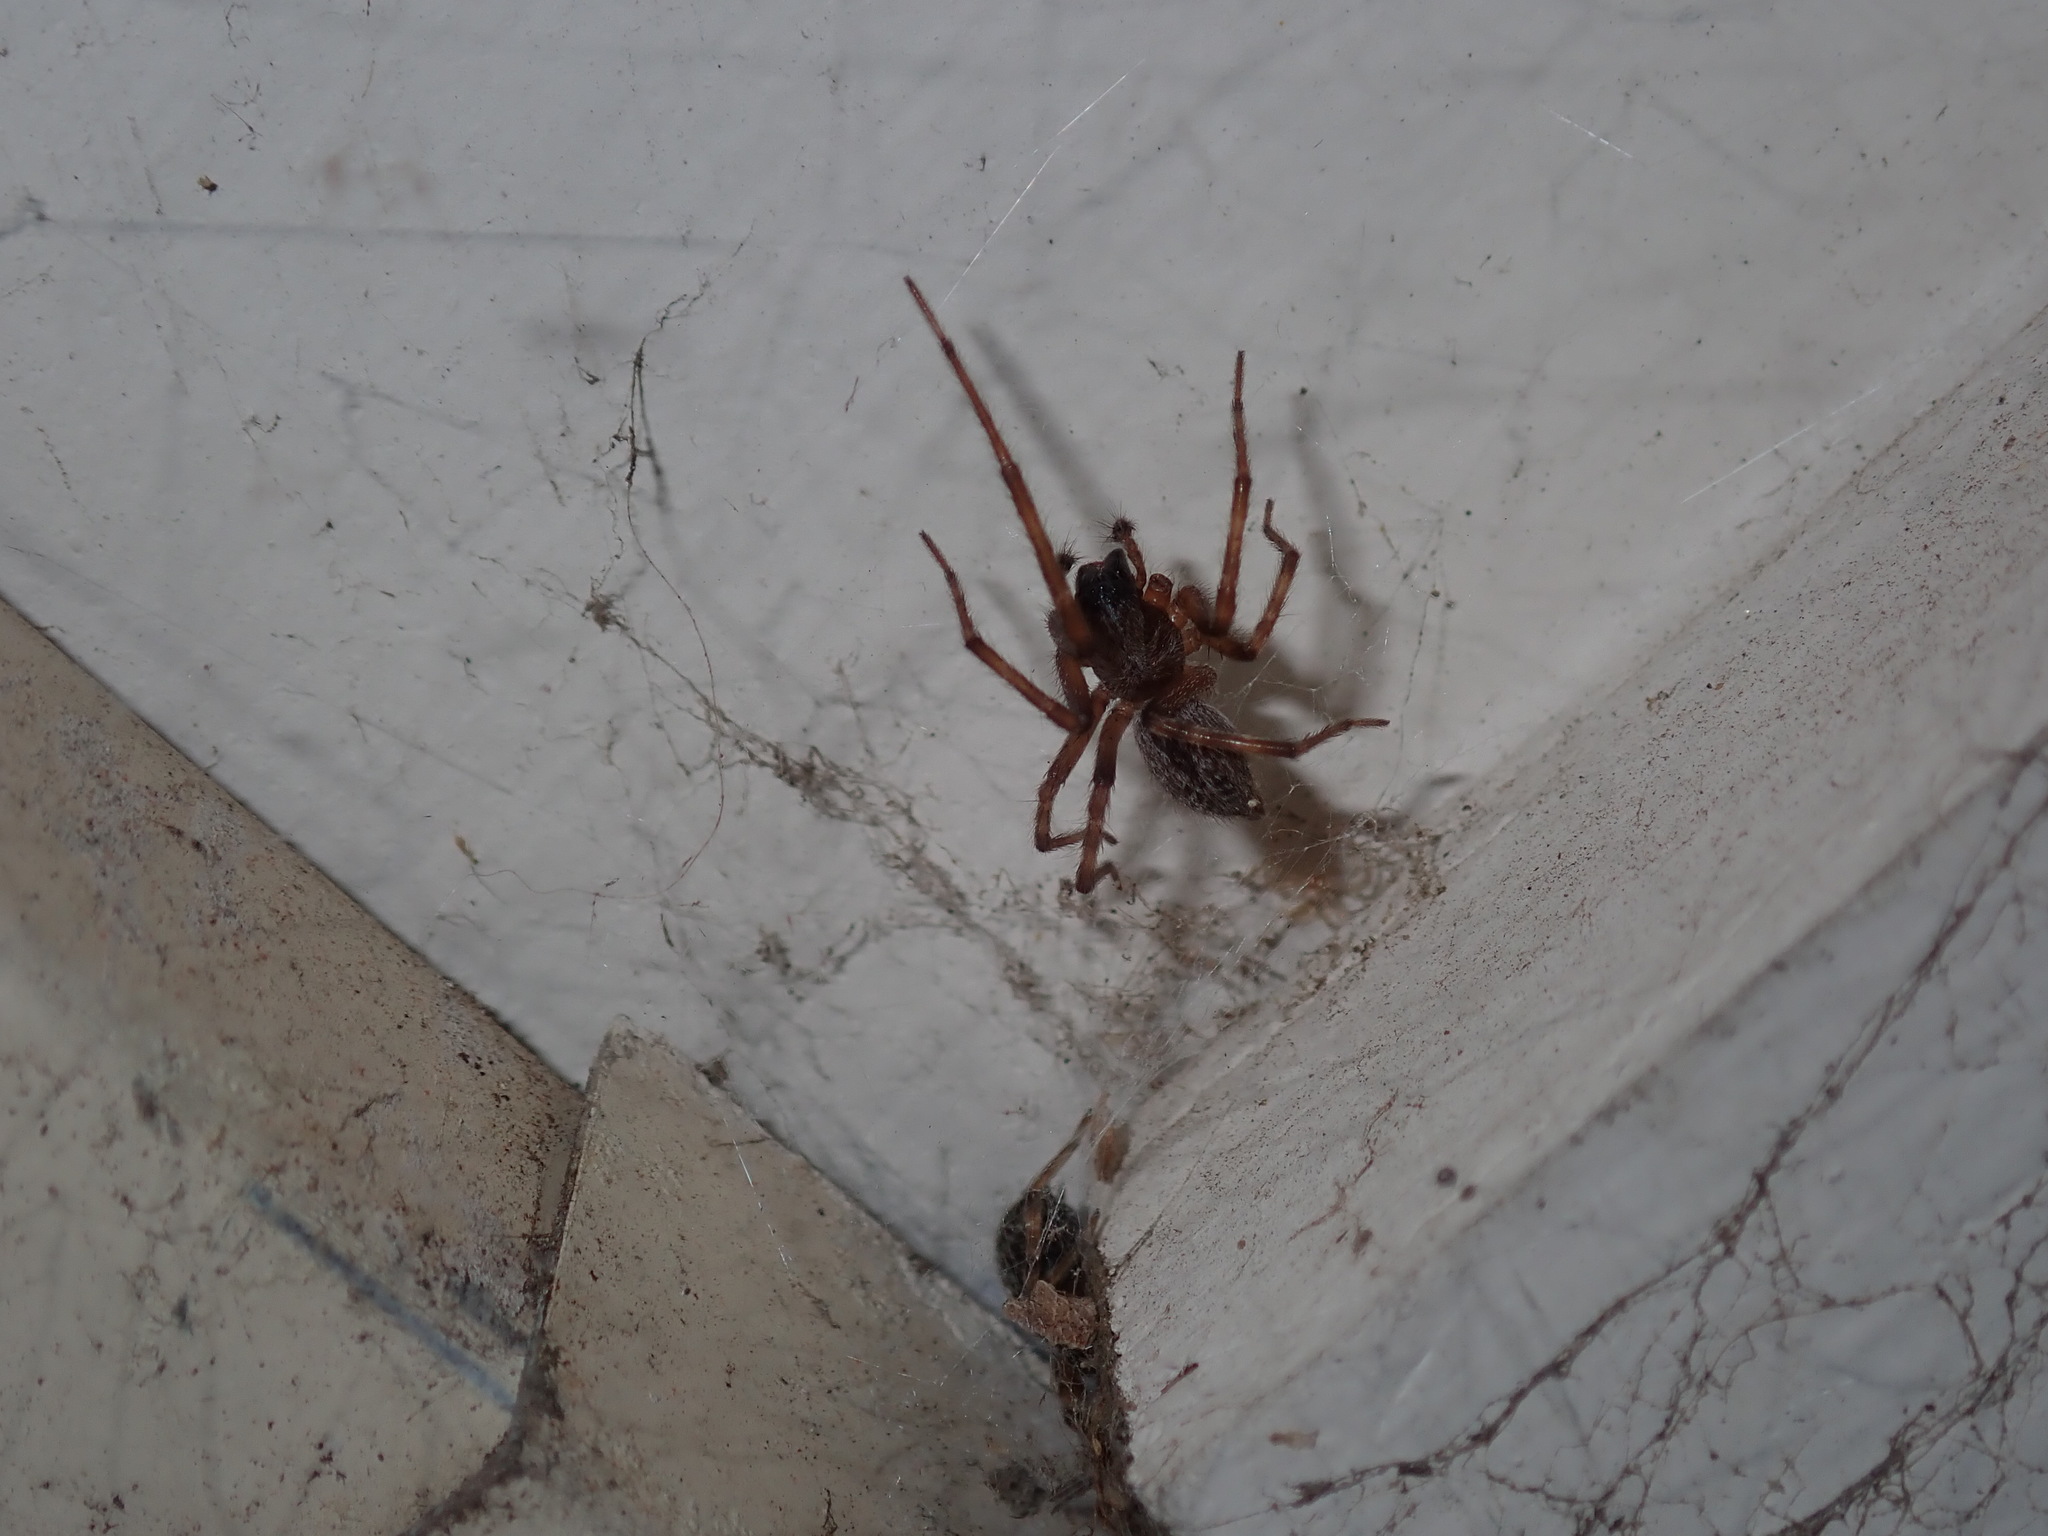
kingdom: Animalia
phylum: Arthropoda
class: Arachnida
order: Araneae
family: Desidae
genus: Badumna
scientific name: Badumna longinqua
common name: Gray house spider
